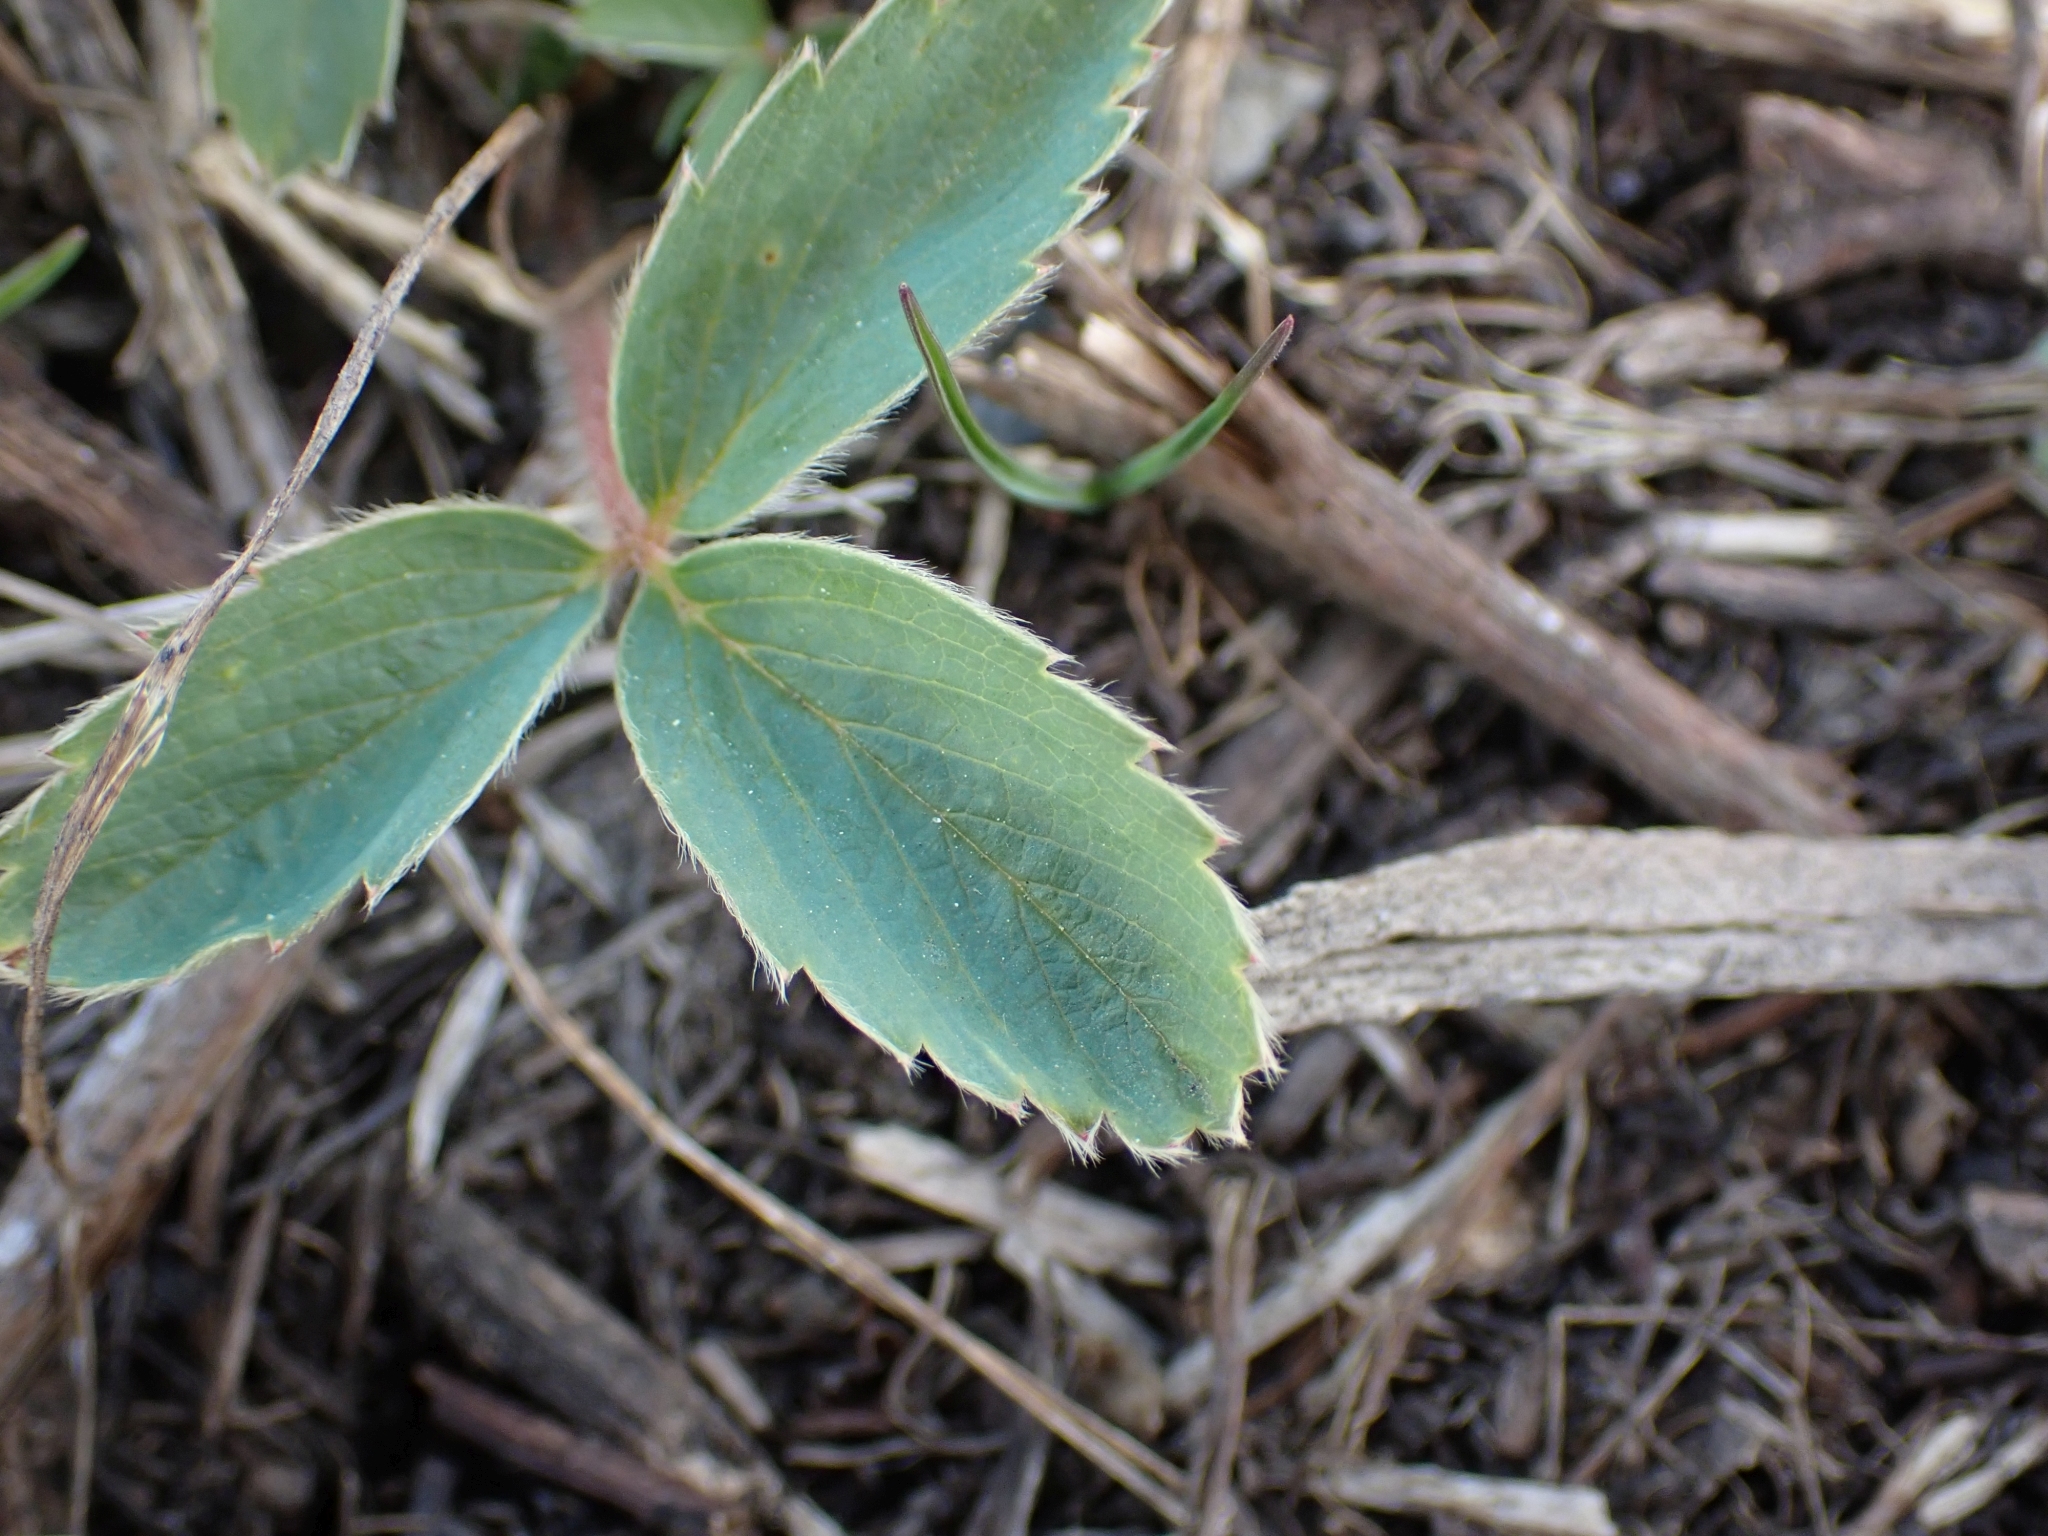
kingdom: Plantae
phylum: Tracheophyta
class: Magnoliopsida
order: Rosales
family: Rosaceae
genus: Fragaria
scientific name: Fragaria virginiana
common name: Thickleaved wild strawberry
